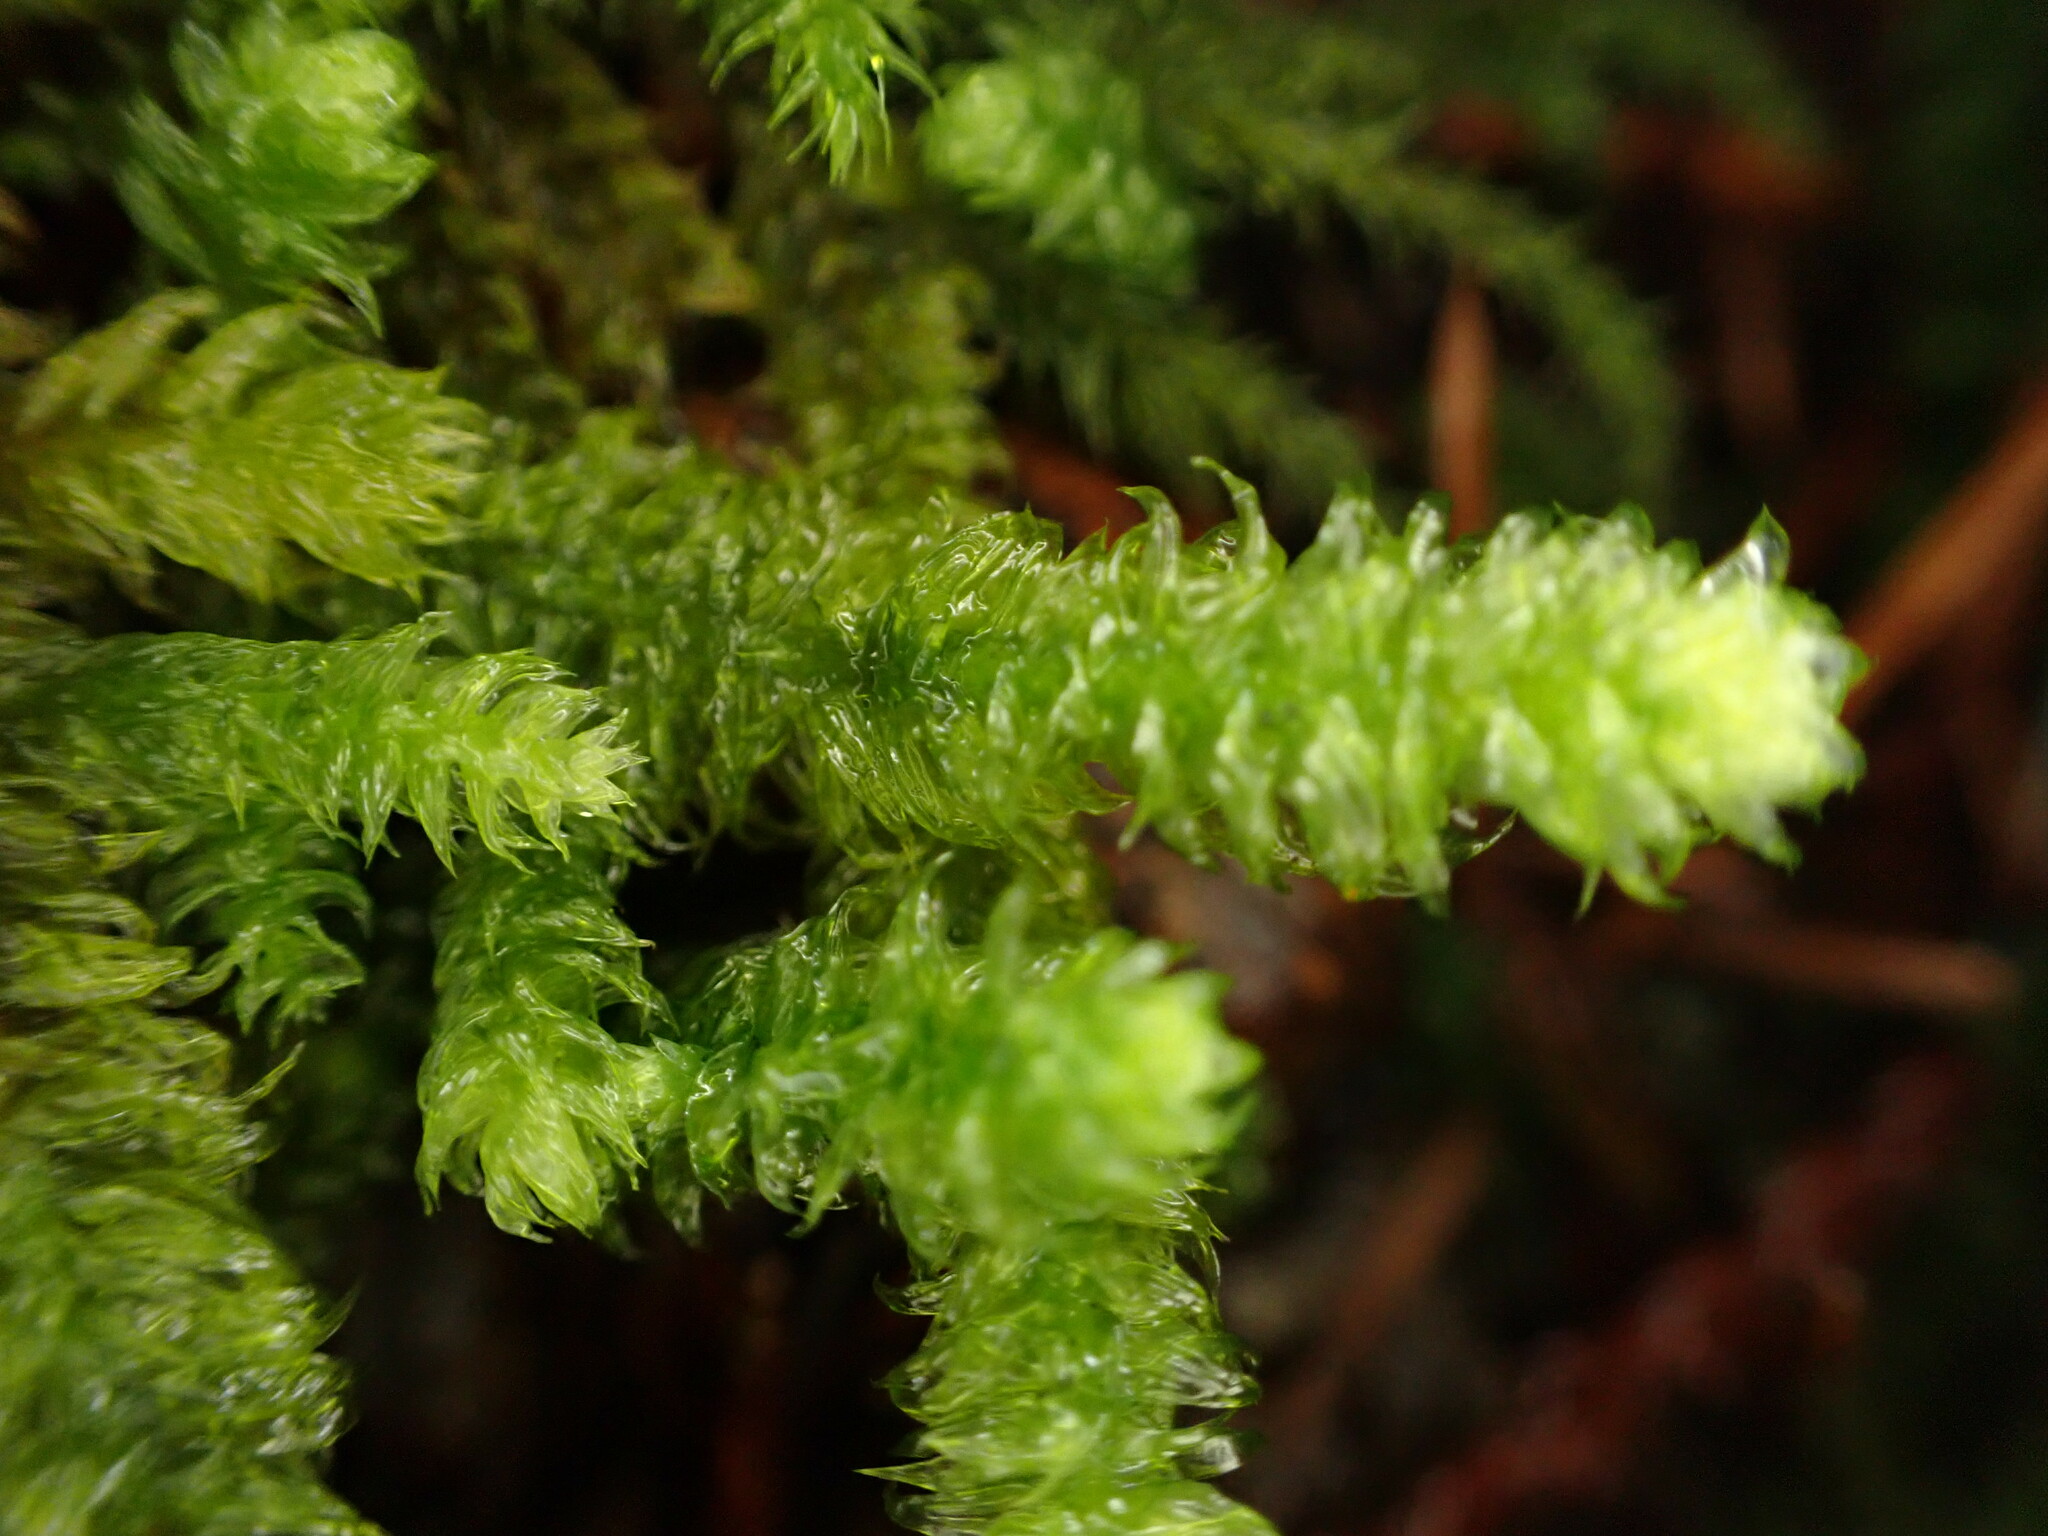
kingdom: Plantae
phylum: Bryophyta
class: Bryopsida
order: Hypnales
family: Hylocomiaceae
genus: Rhytidiopsis
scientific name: Rhytidiopsis robusta
